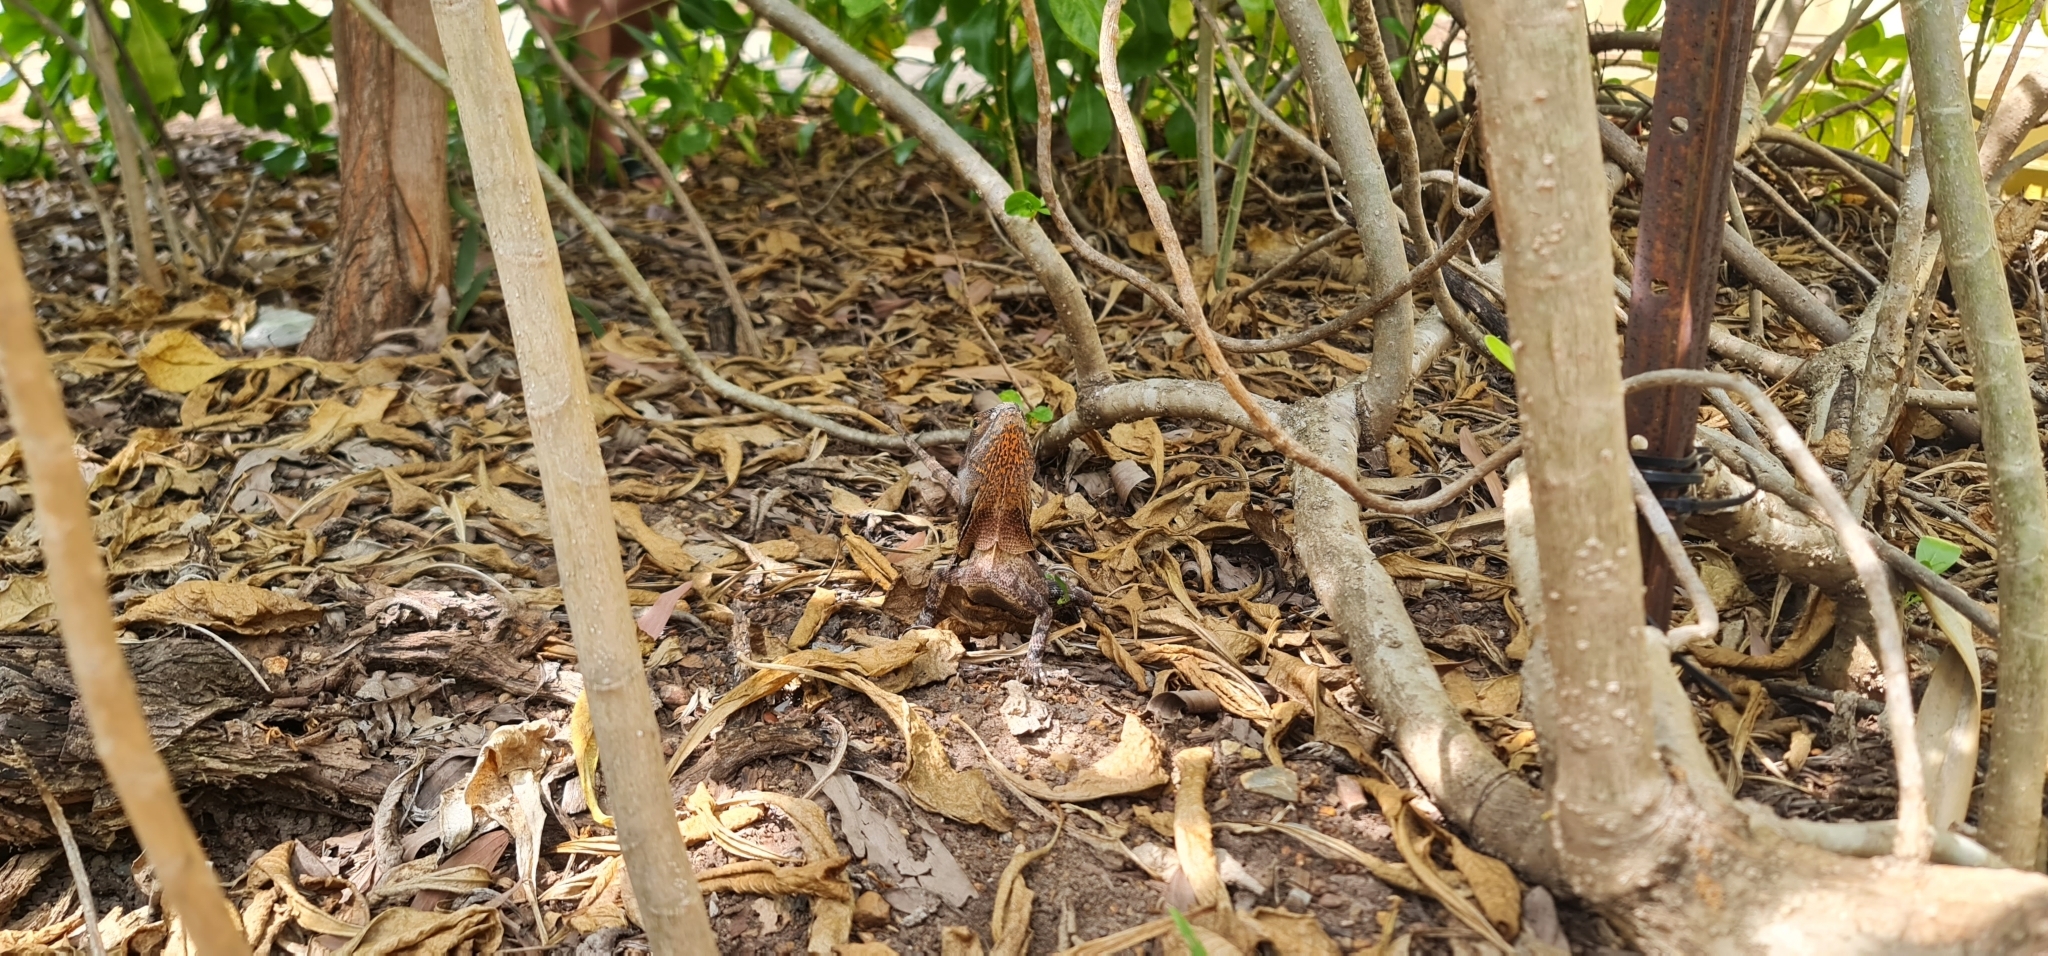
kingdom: Animalia
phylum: Chordata
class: Squamata
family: Agamidae
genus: Chlamydosaurus
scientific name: Chlamydosaurus kingii
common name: Frilled lizard
